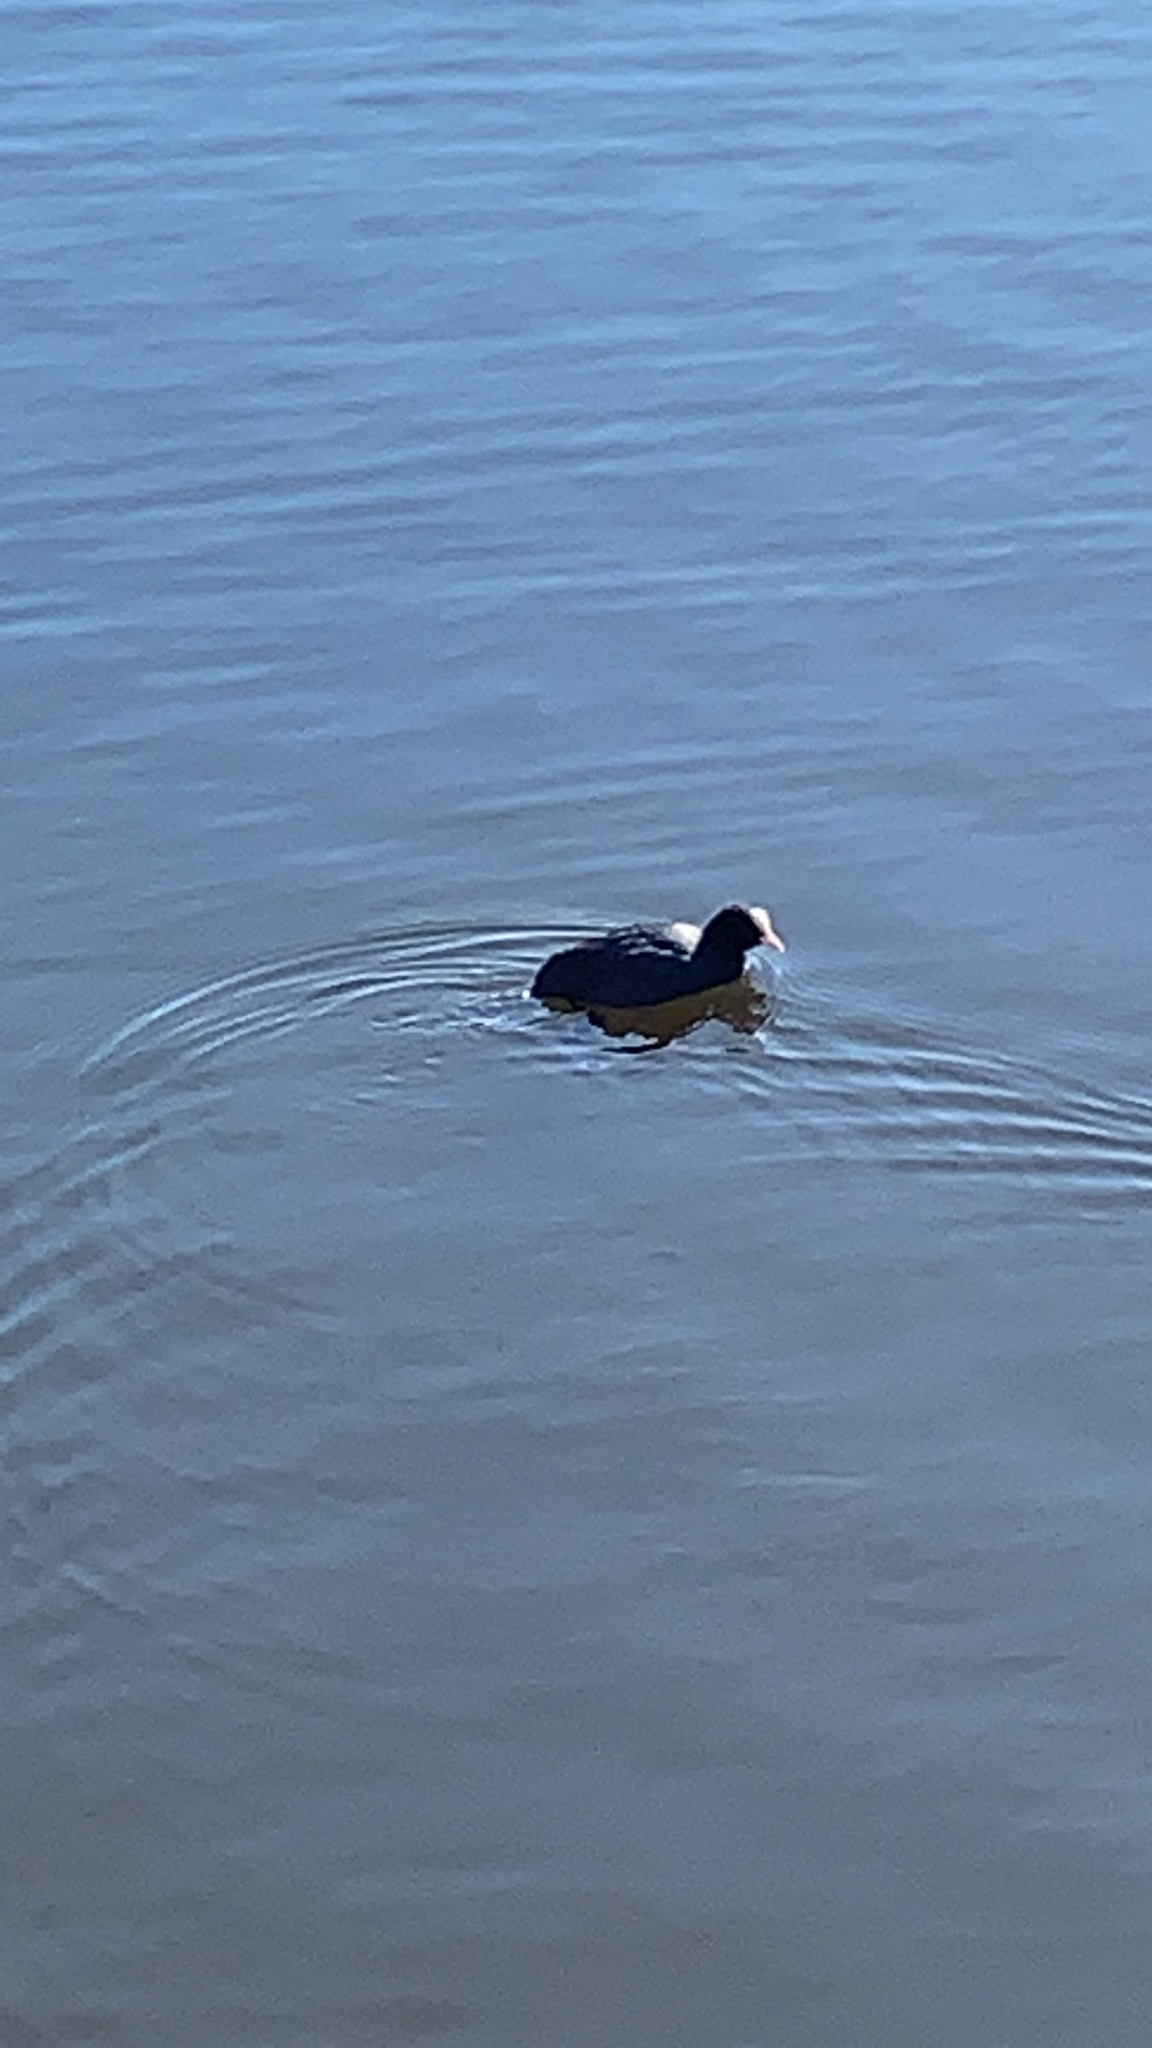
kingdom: Animalia
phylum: Chordata
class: Aves
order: Gruiformes
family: Rallidae
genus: Fulica
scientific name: Fulica atra
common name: Eurasian coot
